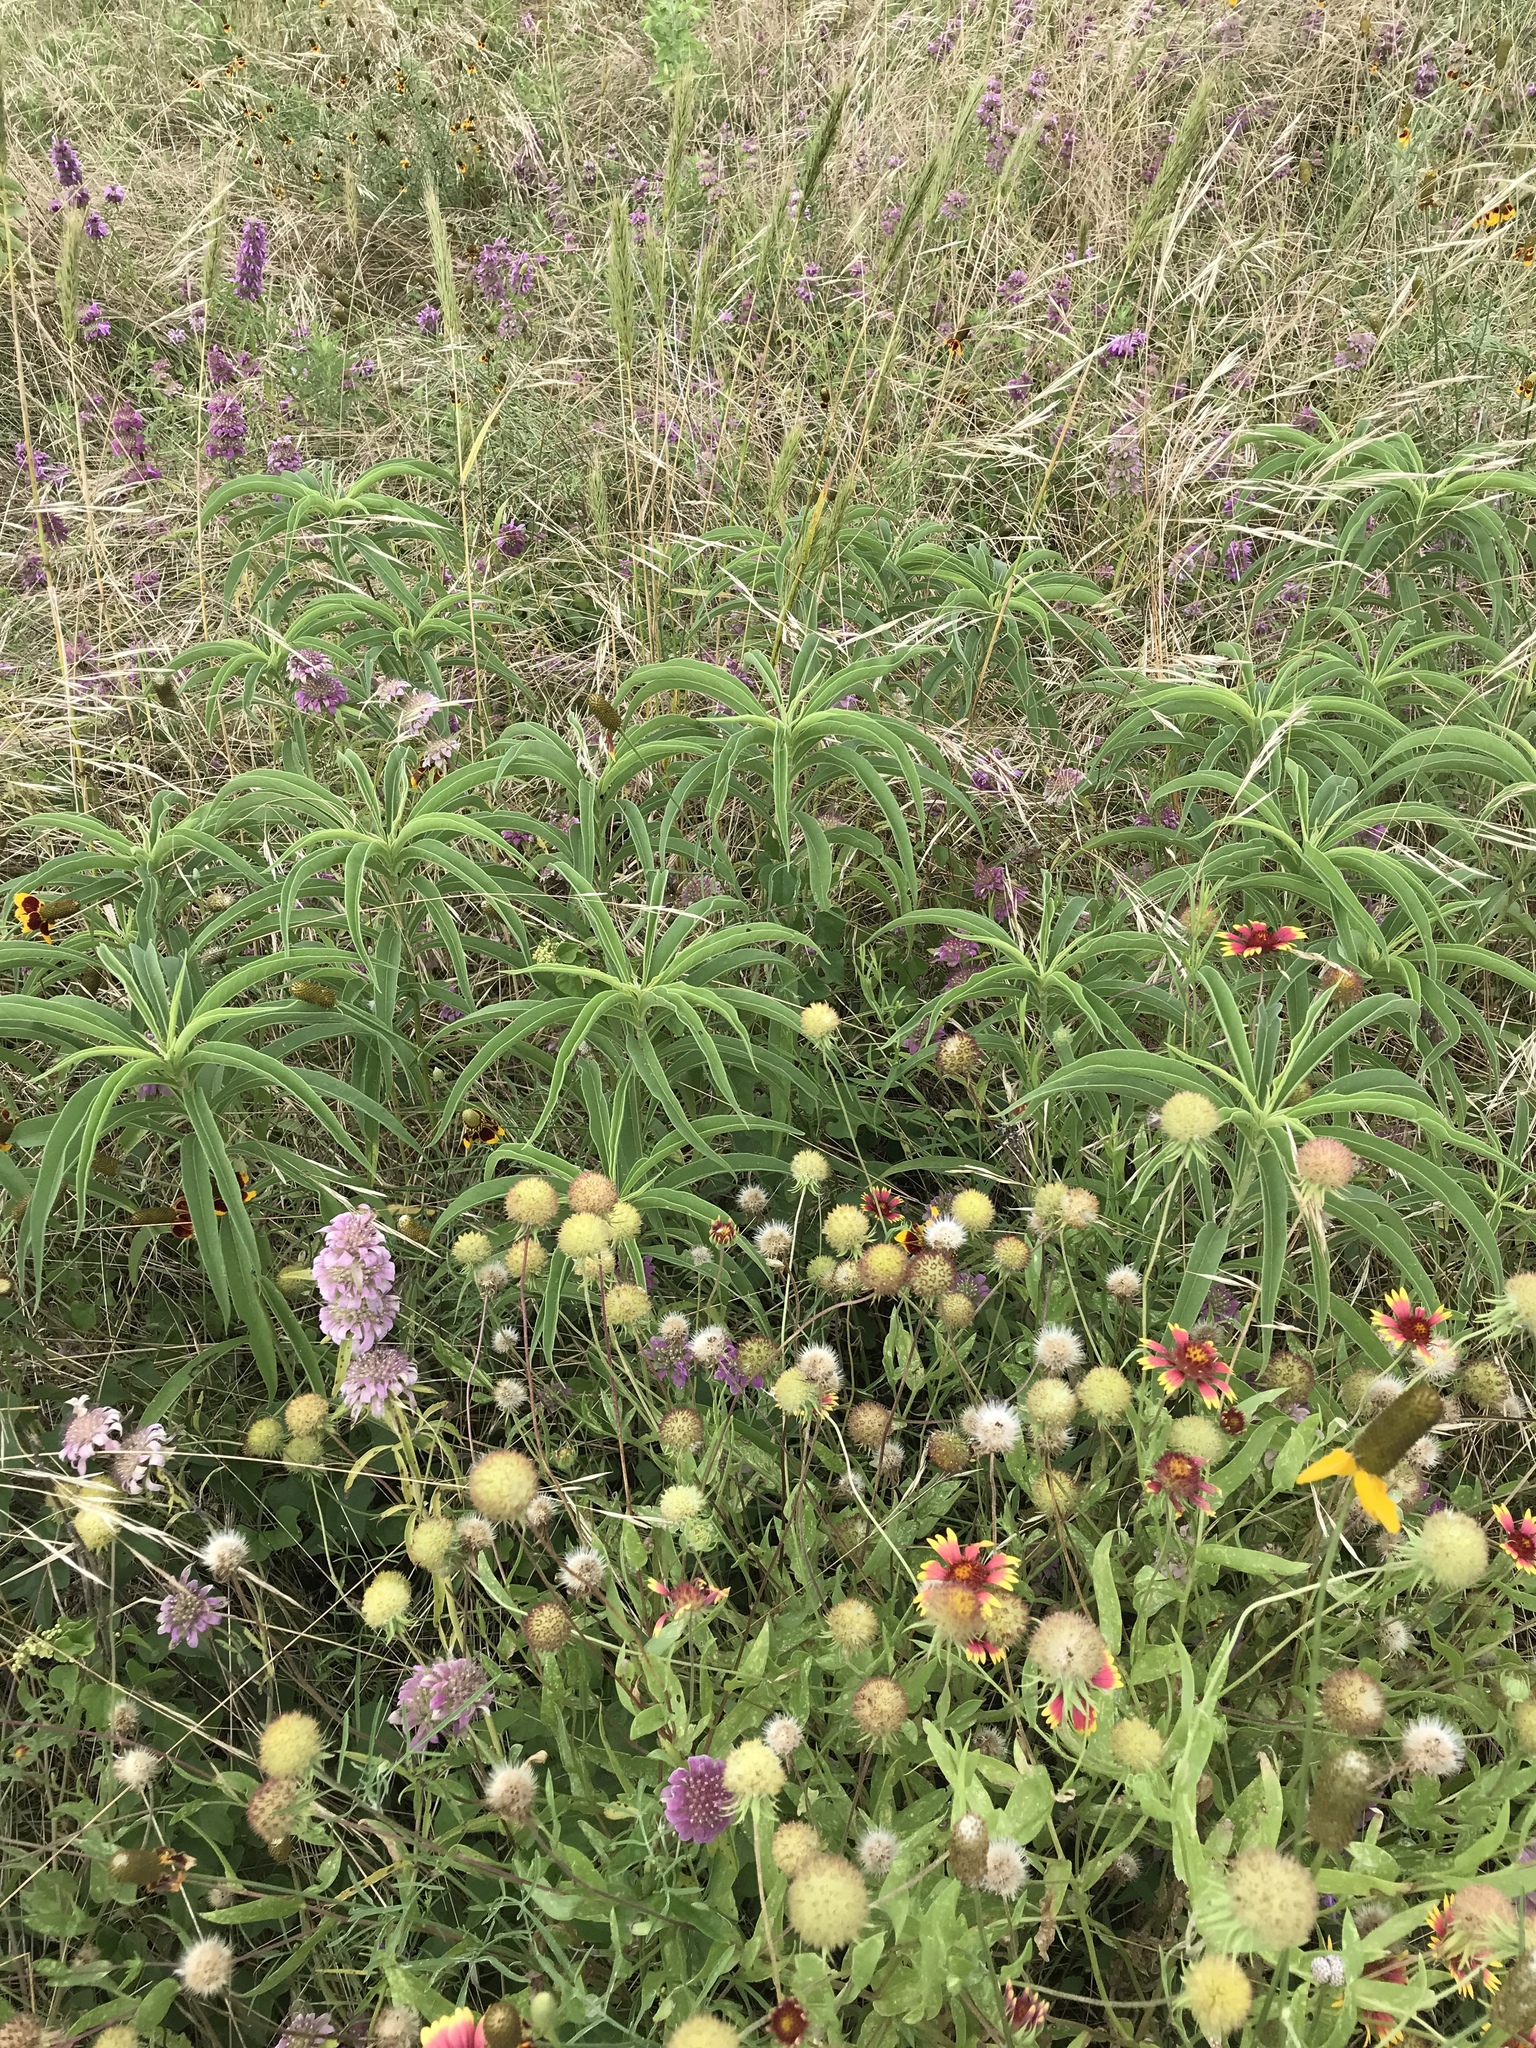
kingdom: Plantae
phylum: Tracheophyta
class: Magnoliopsida
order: Asterales
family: Asteraceae
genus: Helianthus
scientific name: Helianthus maximiliani
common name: Maximilian's sunflower
